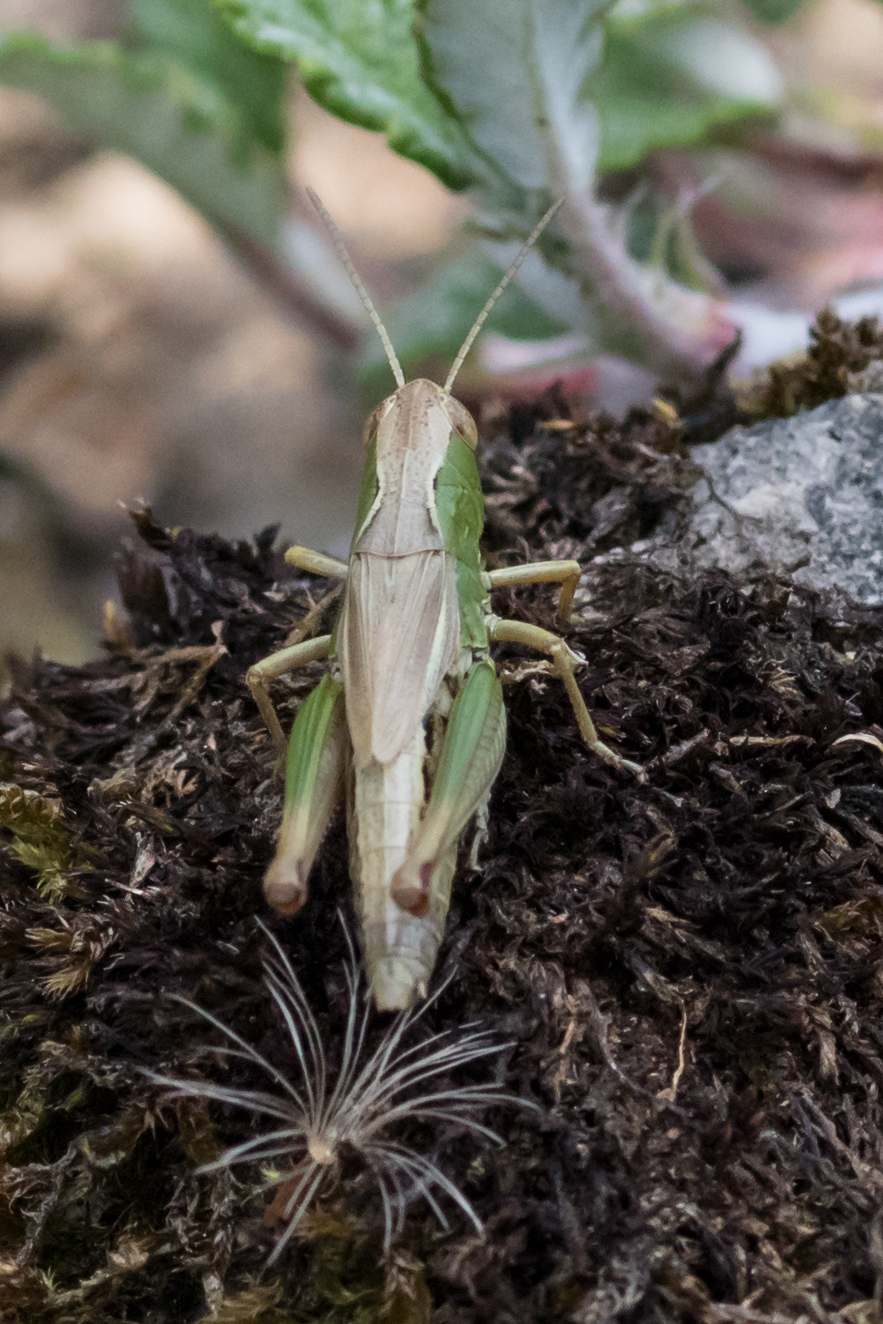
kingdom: Animalia
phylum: Arthropoda
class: Insecta
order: Orthoptera
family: Acrididae
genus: Pseudochorthippus
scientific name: Pseudochorthippus parallelus
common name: Meadow grasshopper
